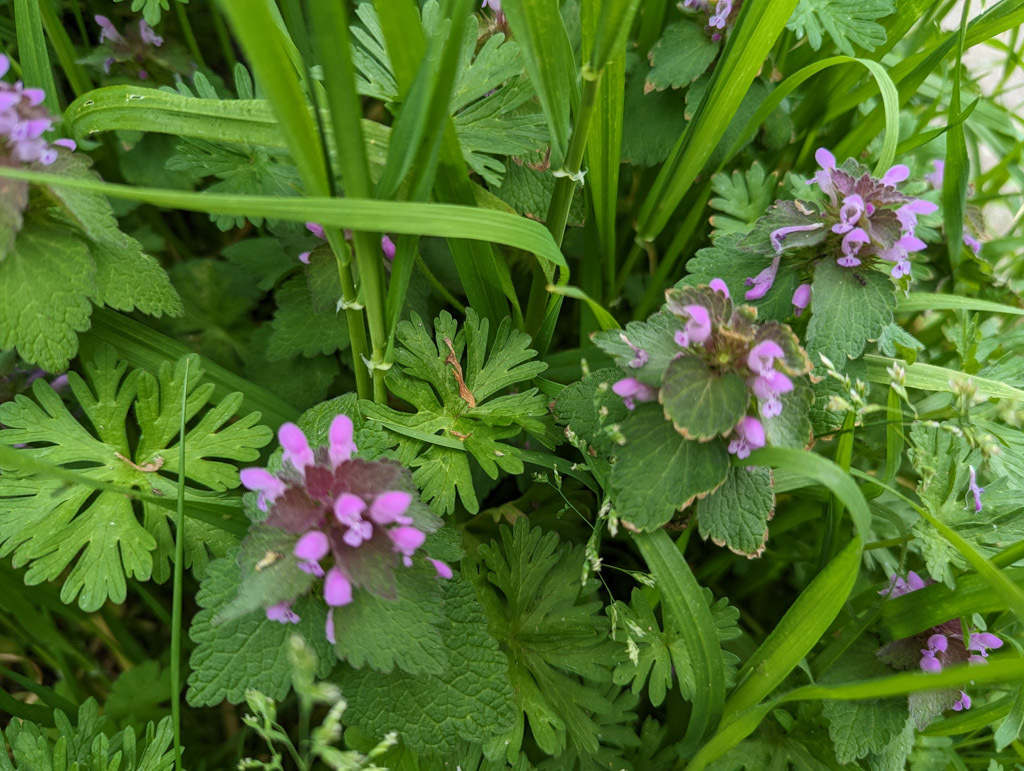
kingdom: Plantae
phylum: Tracheophyta
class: Magnoliopsida
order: Lamiales
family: Lamiaceae
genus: Lamium
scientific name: Lamium purpureum
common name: Red dead-nettle
